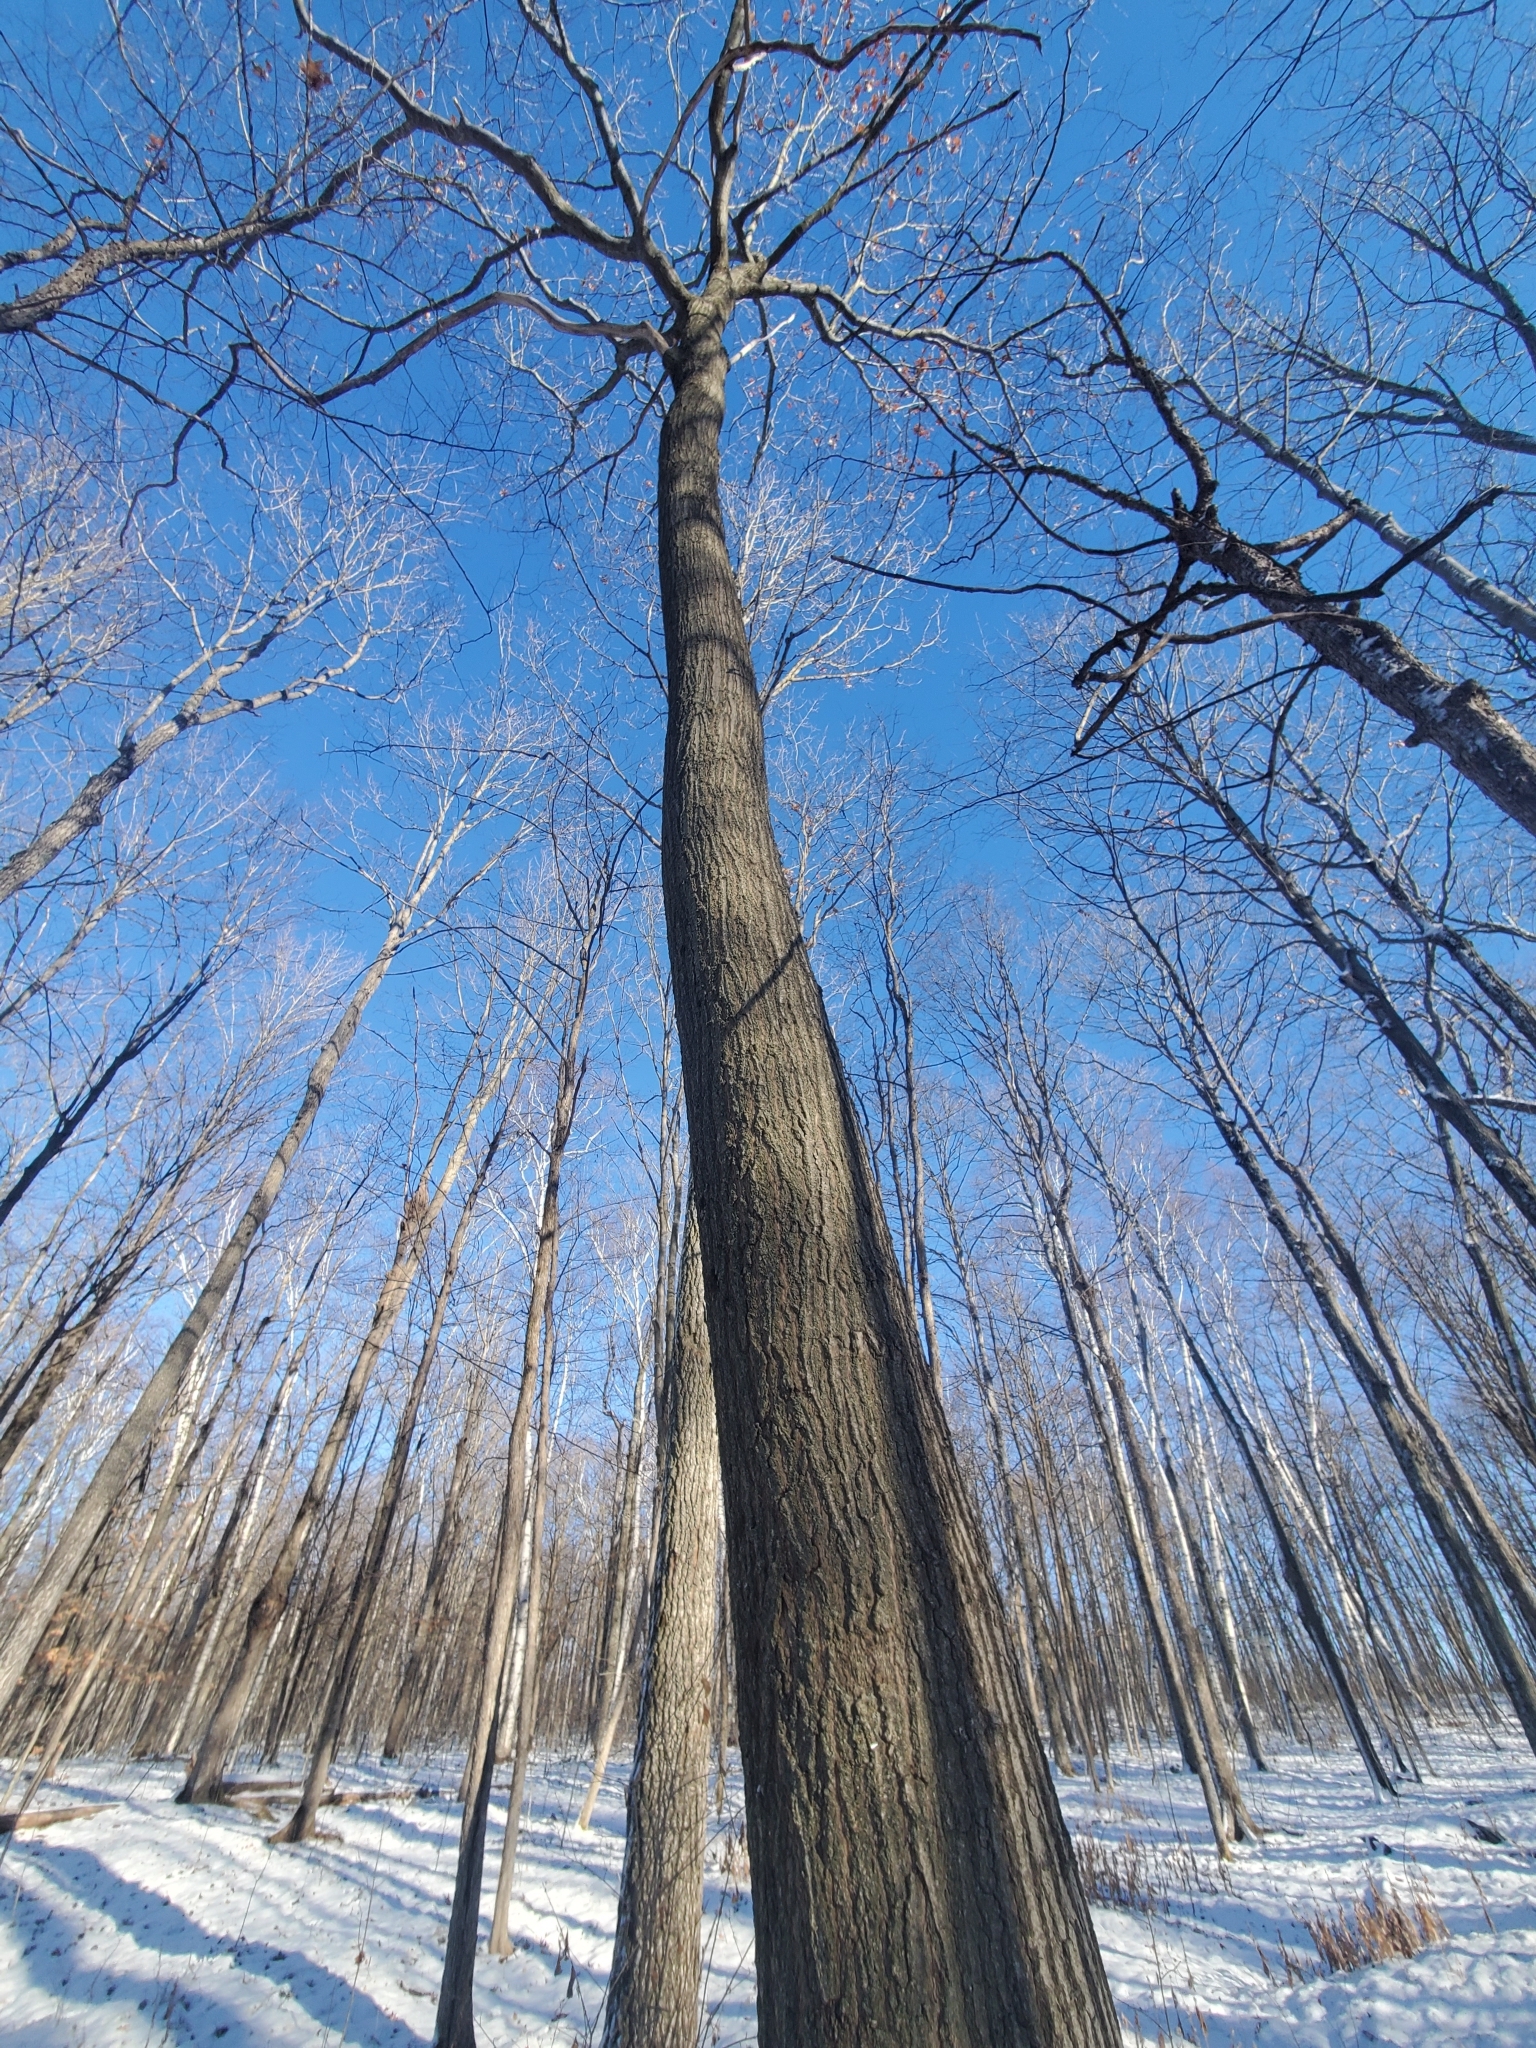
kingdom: Plantae
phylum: Tracheophyta
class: Magnoliopsida
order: Fagales
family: Fagaceae
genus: Quercus
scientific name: Quercus rubra
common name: Red oak
